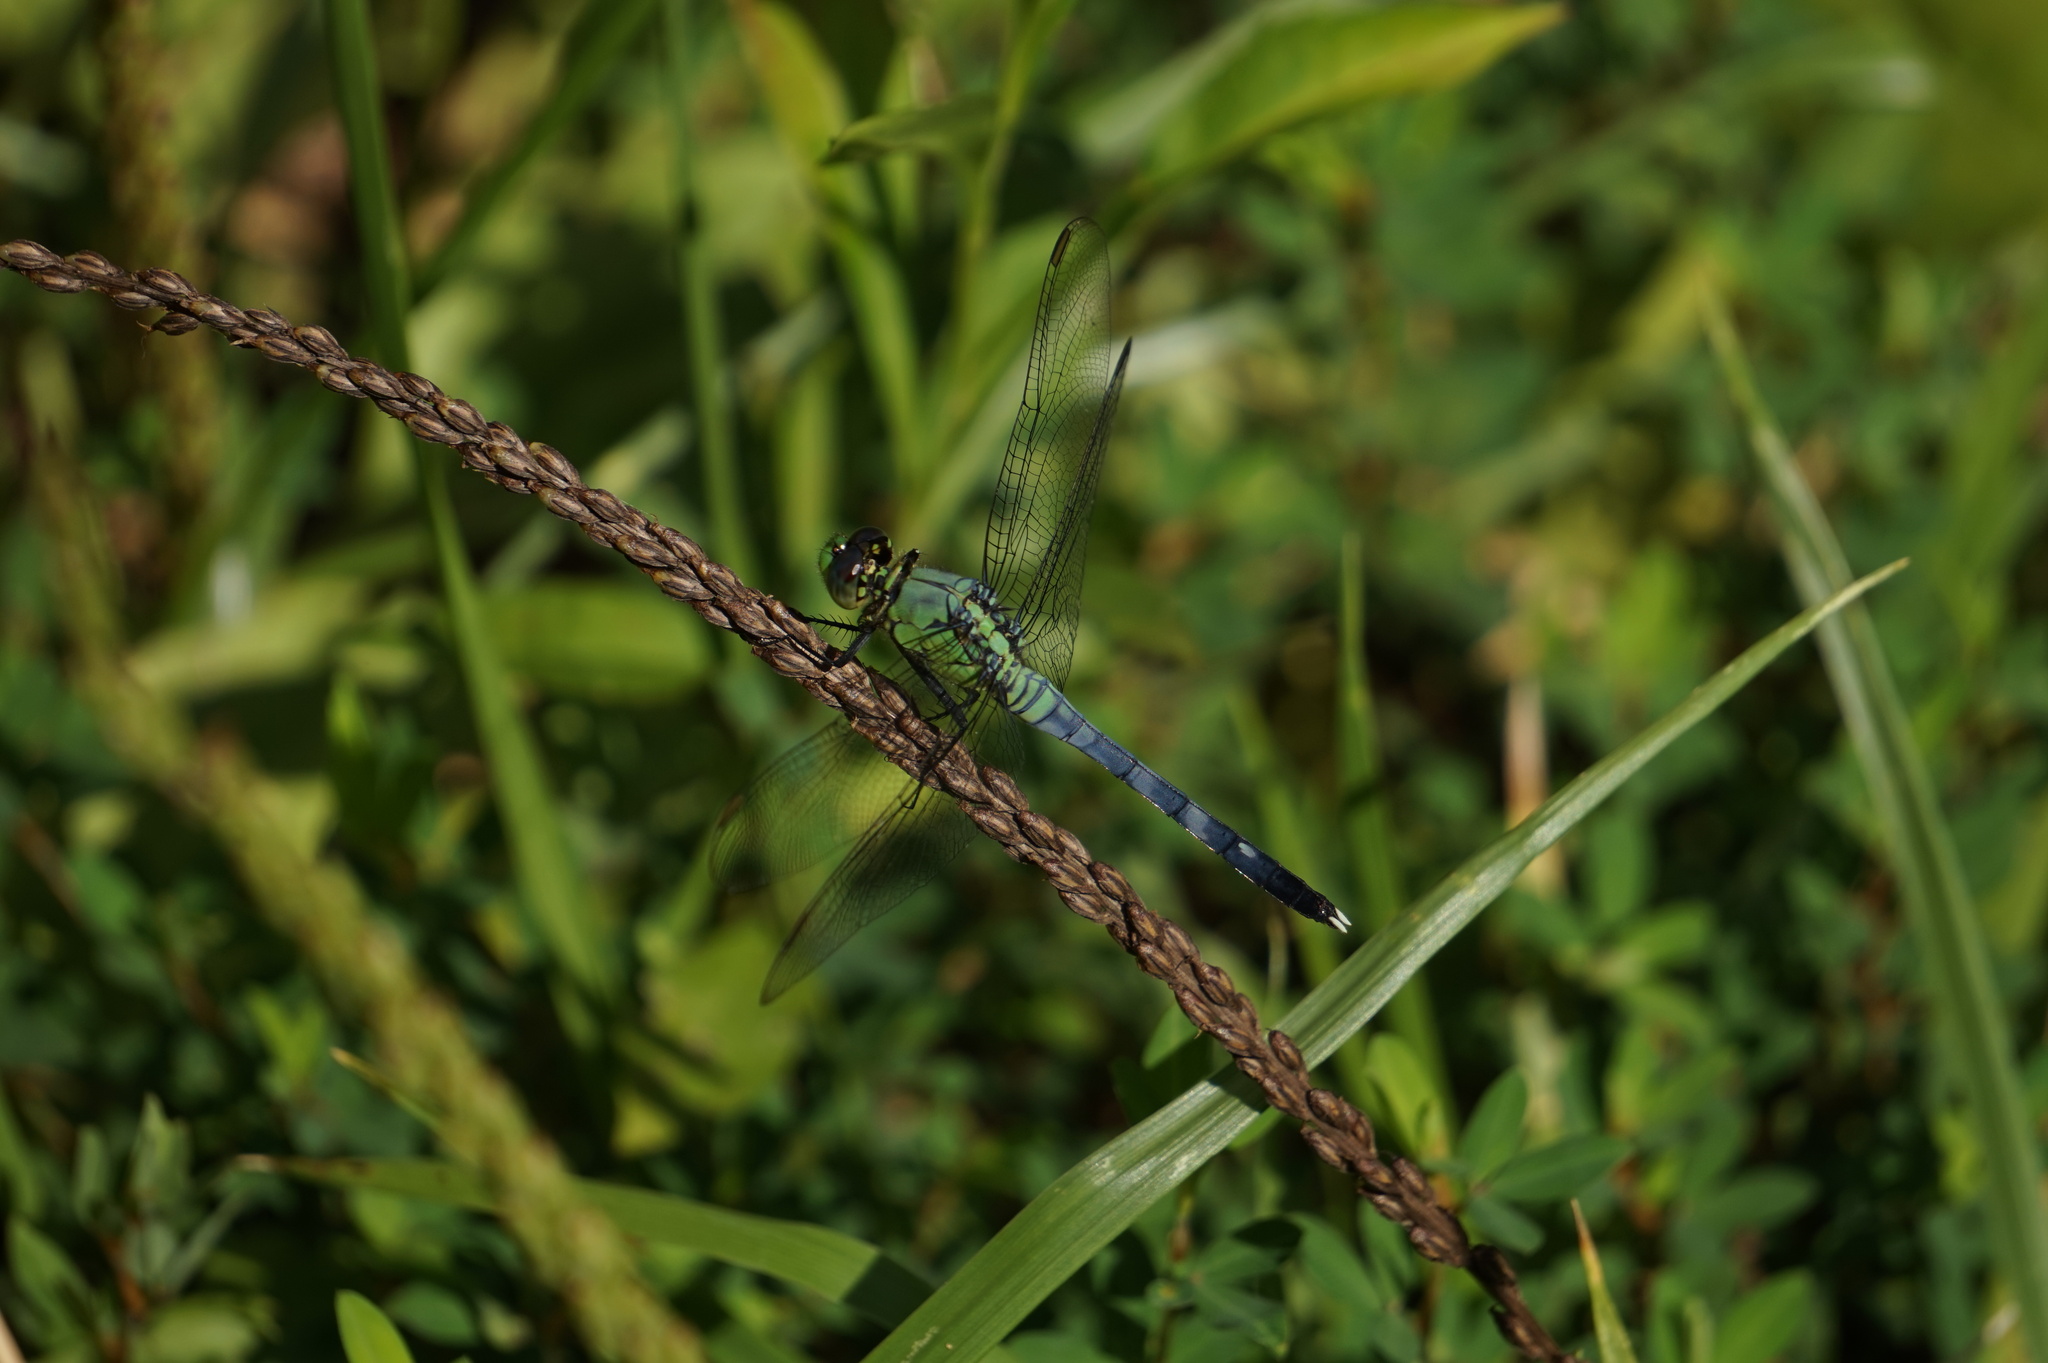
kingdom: Animalia
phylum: Arthropoda
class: Insecta
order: Odonata
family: Libellulidae
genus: Erythemis
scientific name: Erythemis simplicicollis
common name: Eastern pondhawk
